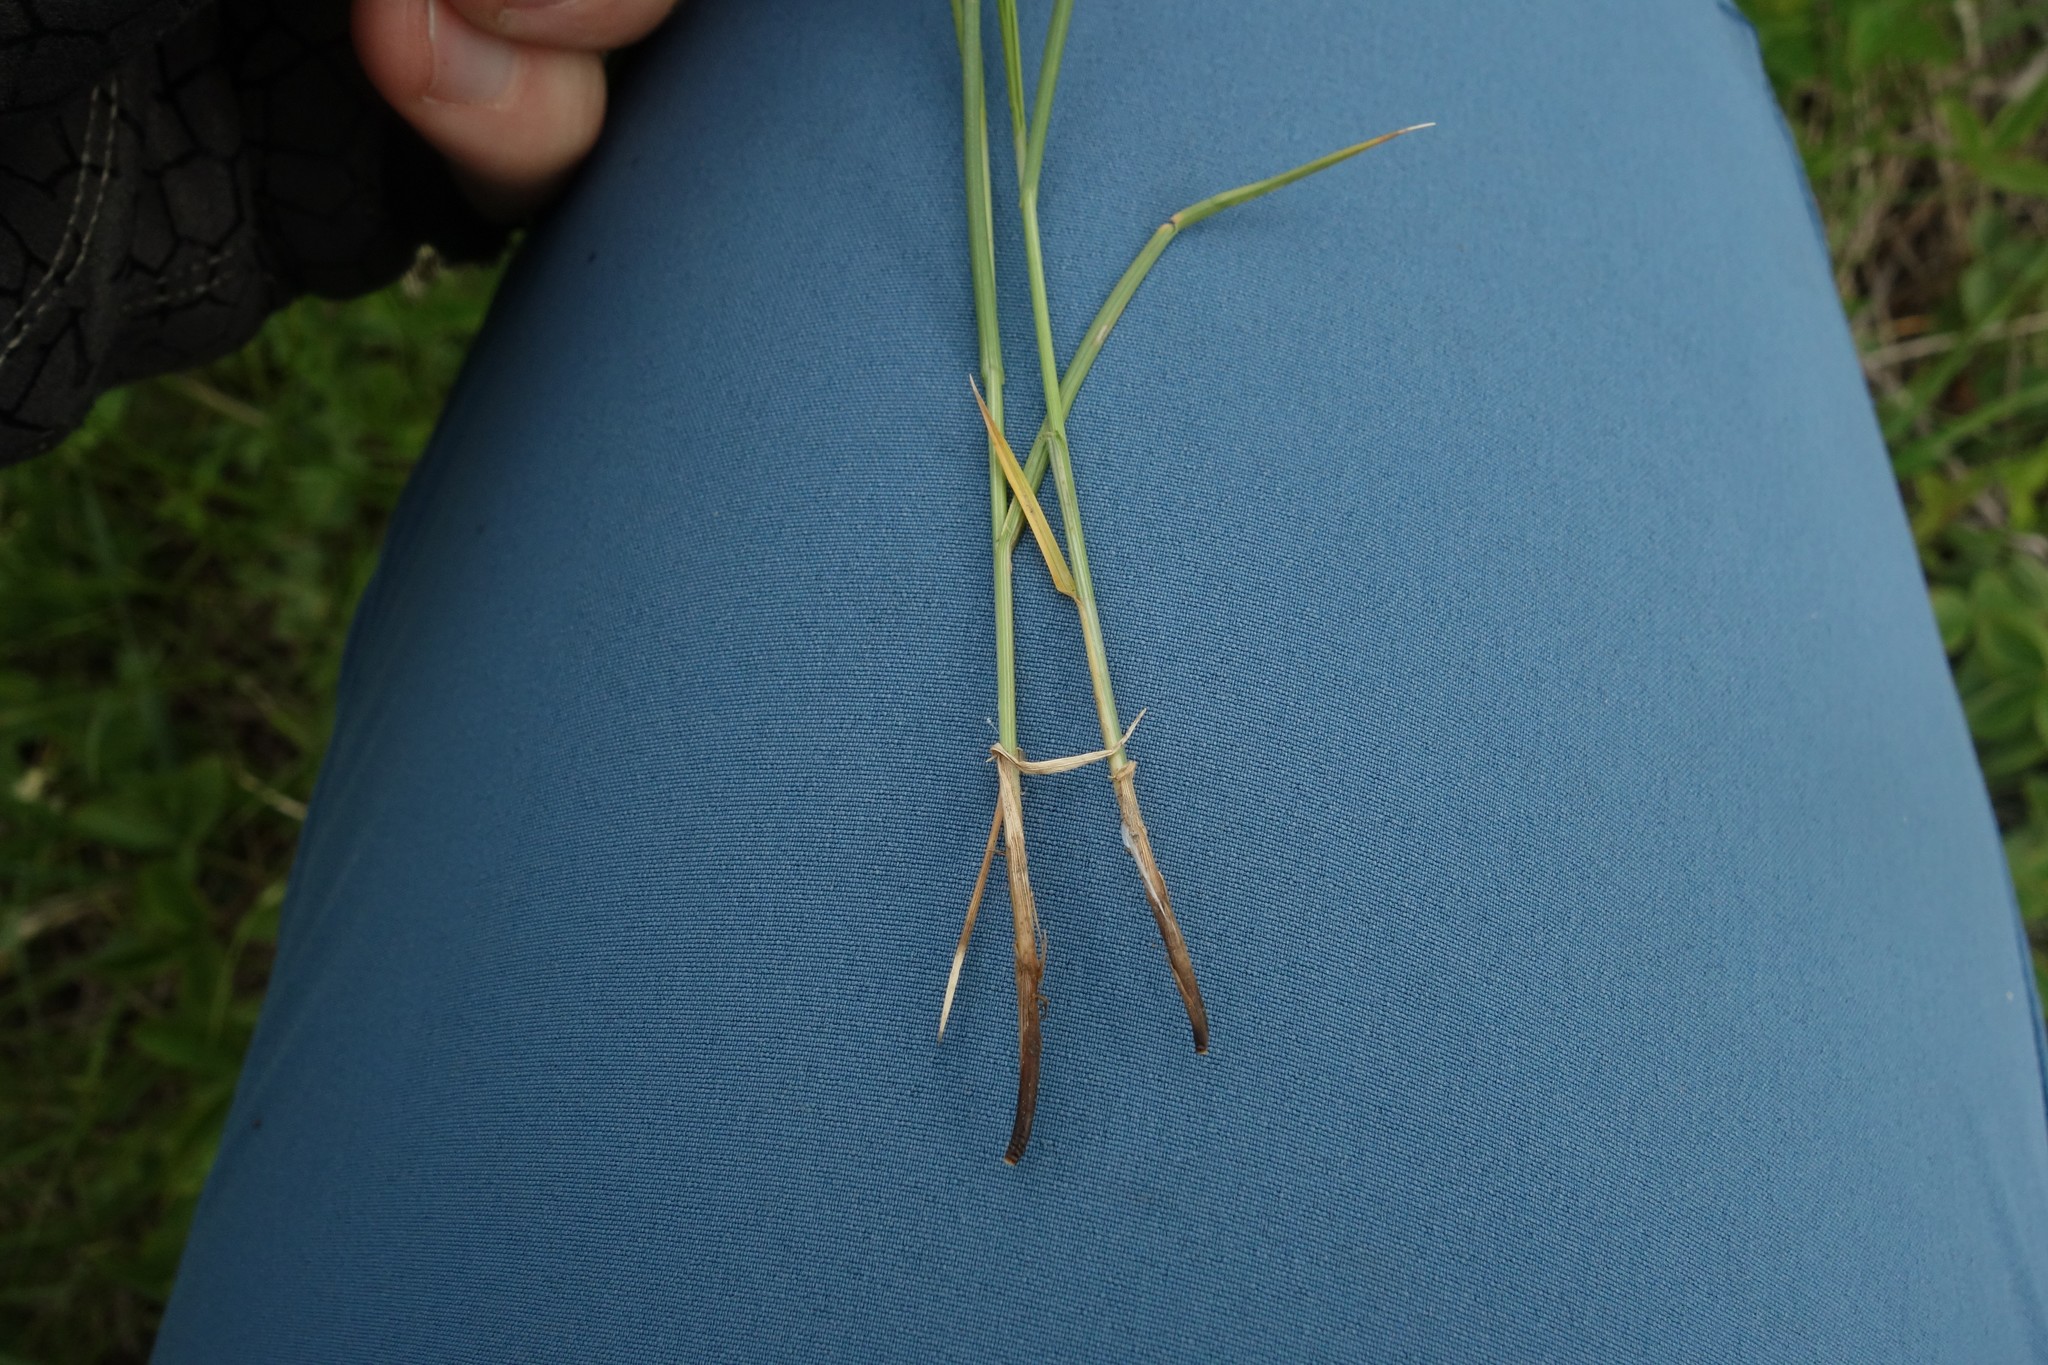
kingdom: Plantae
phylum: Tracheophyta
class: Liliopsida
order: Poales
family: Cyperaceae
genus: Carex
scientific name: Carex praecox
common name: Early sedge
